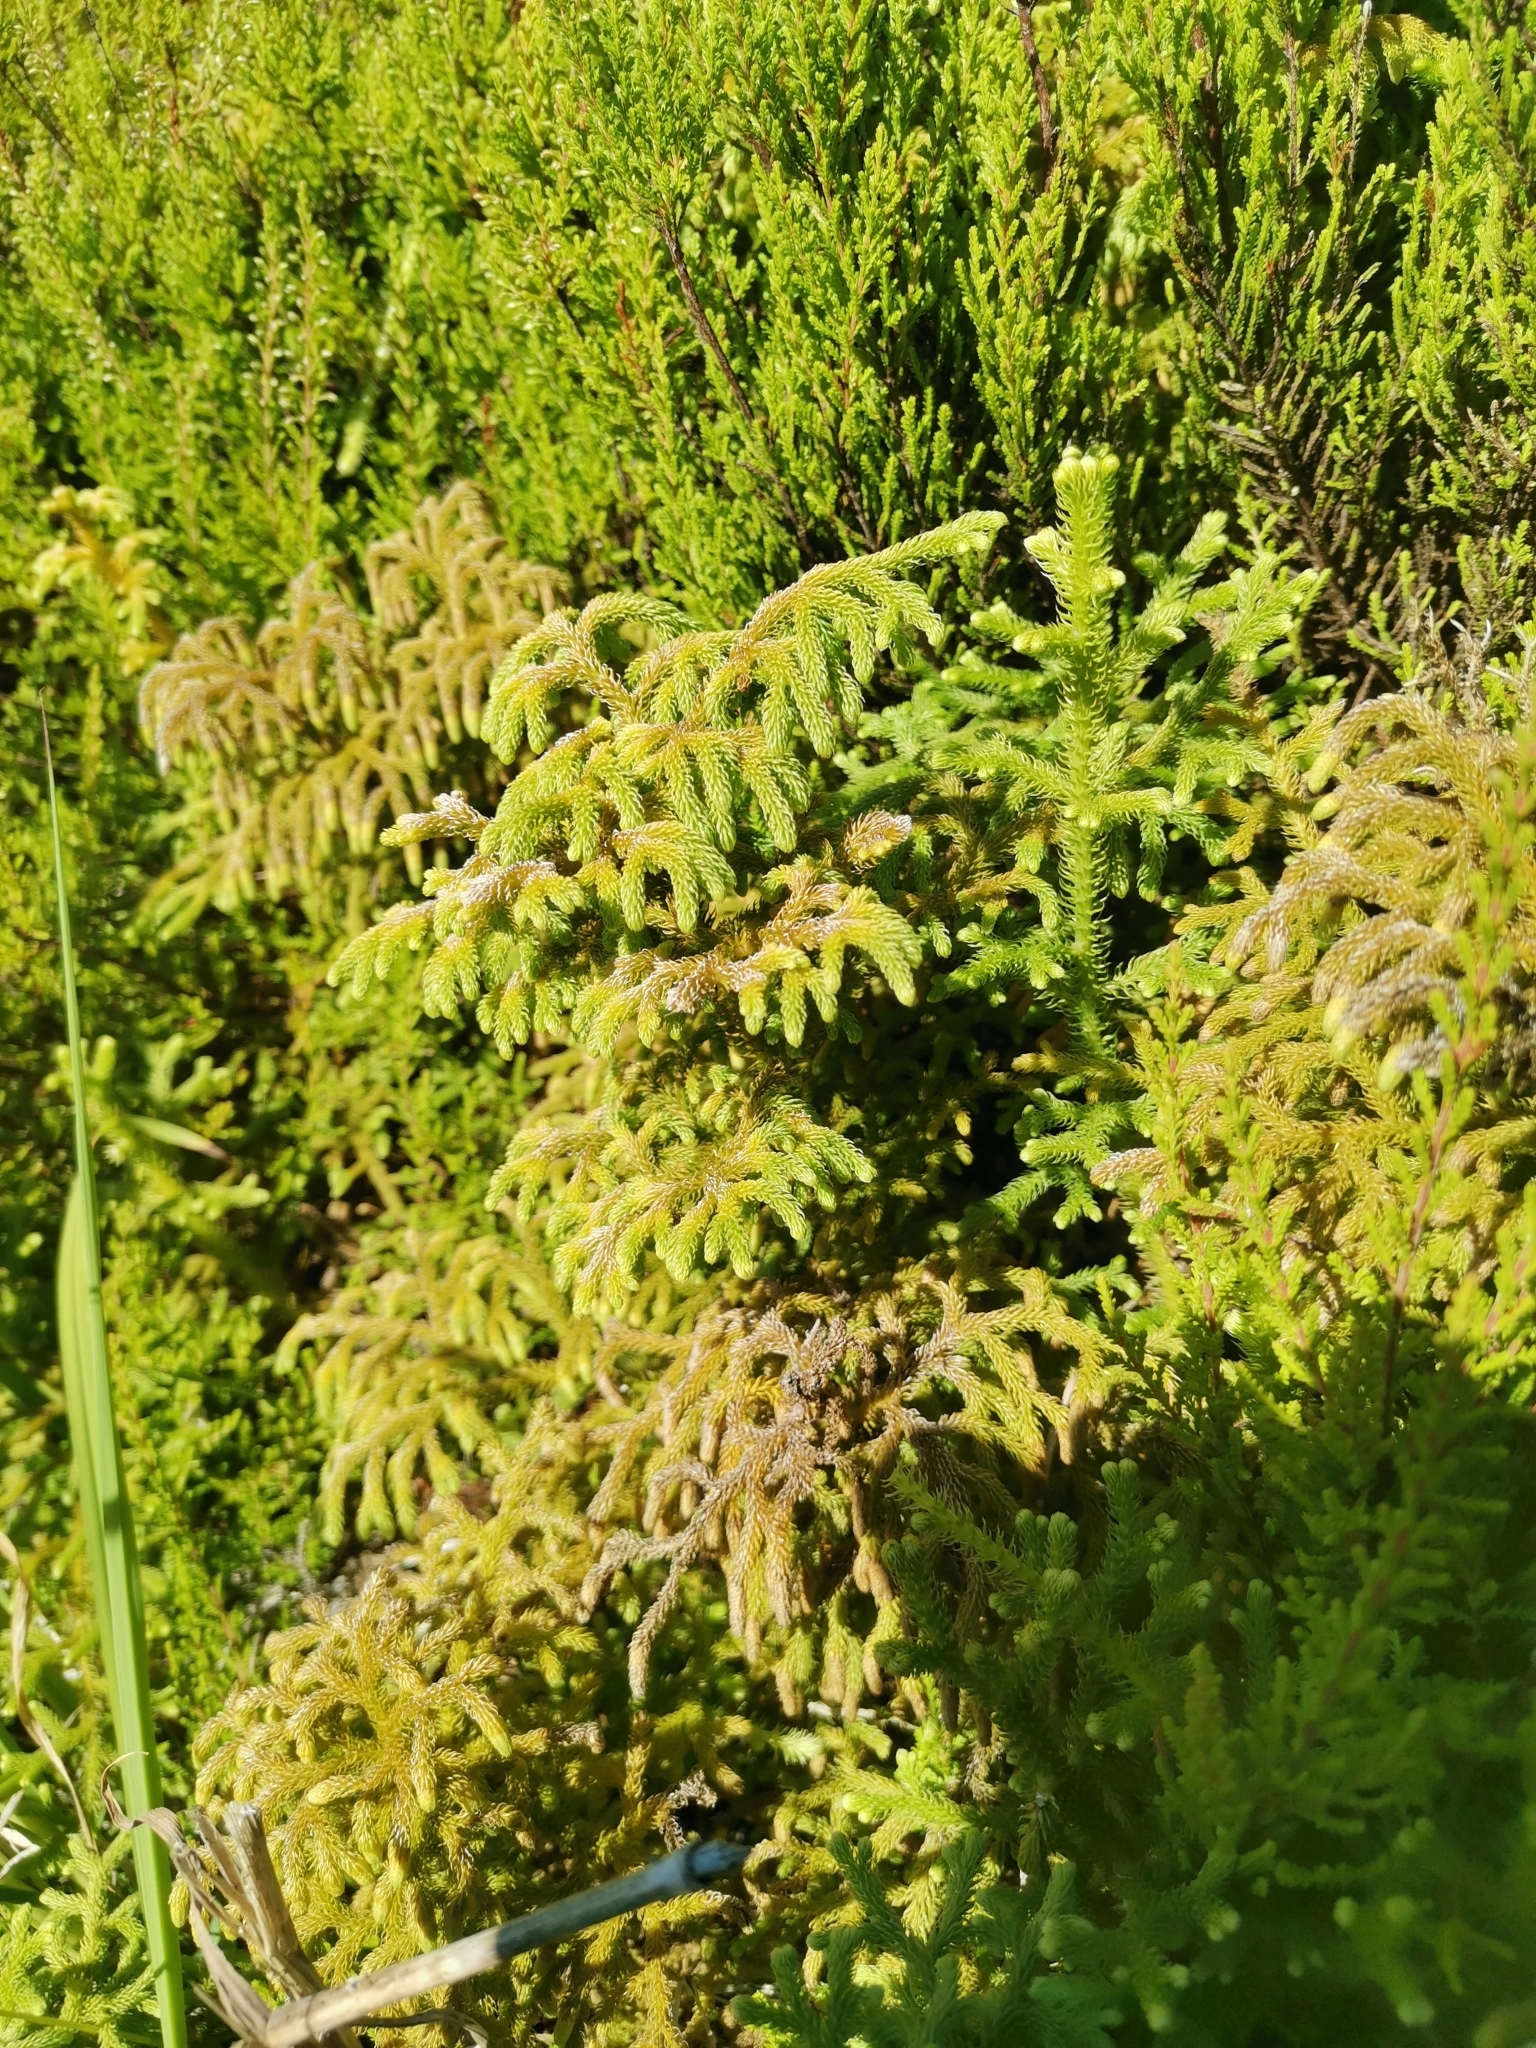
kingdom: Plantae
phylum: Tracheophyta
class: Lycopodiopsida
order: Lycopodiales
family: Lycopodiaceae
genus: Palhinhaea
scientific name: Palhinhaea cernua
